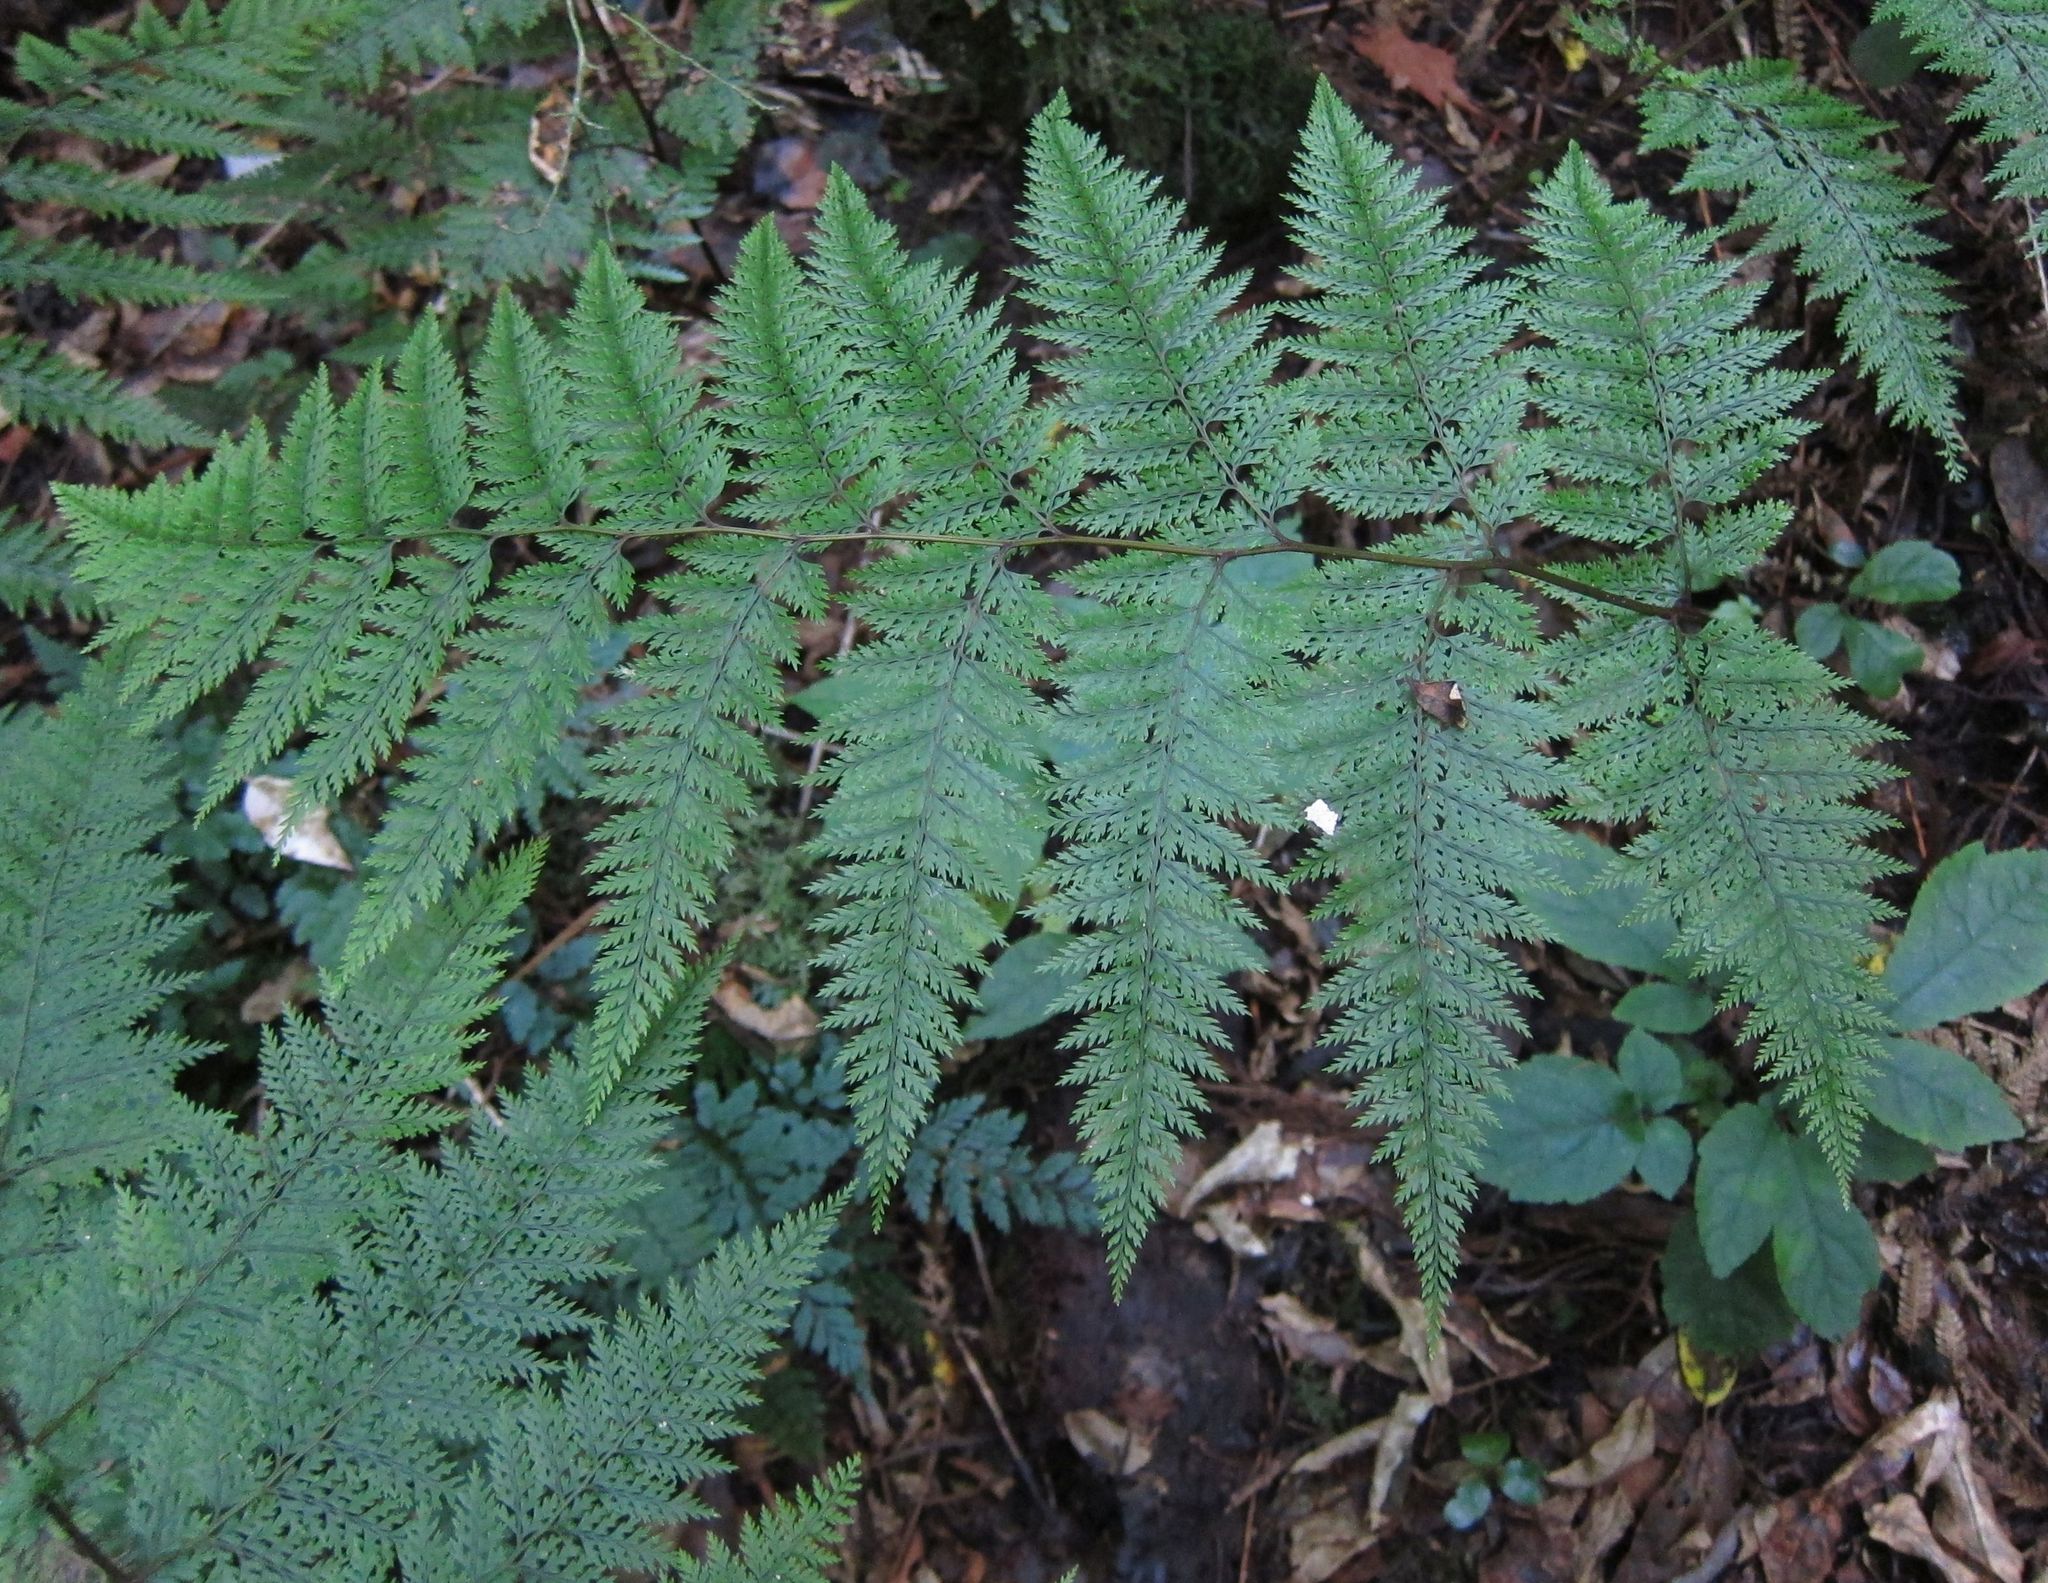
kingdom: Plantae
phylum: Tracheophyta
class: Polypodiopsida
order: Polypodiales
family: Dennstaedtiaceae
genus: Dennstaedtia
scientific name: Dennstaedtia novae-zelandiae
